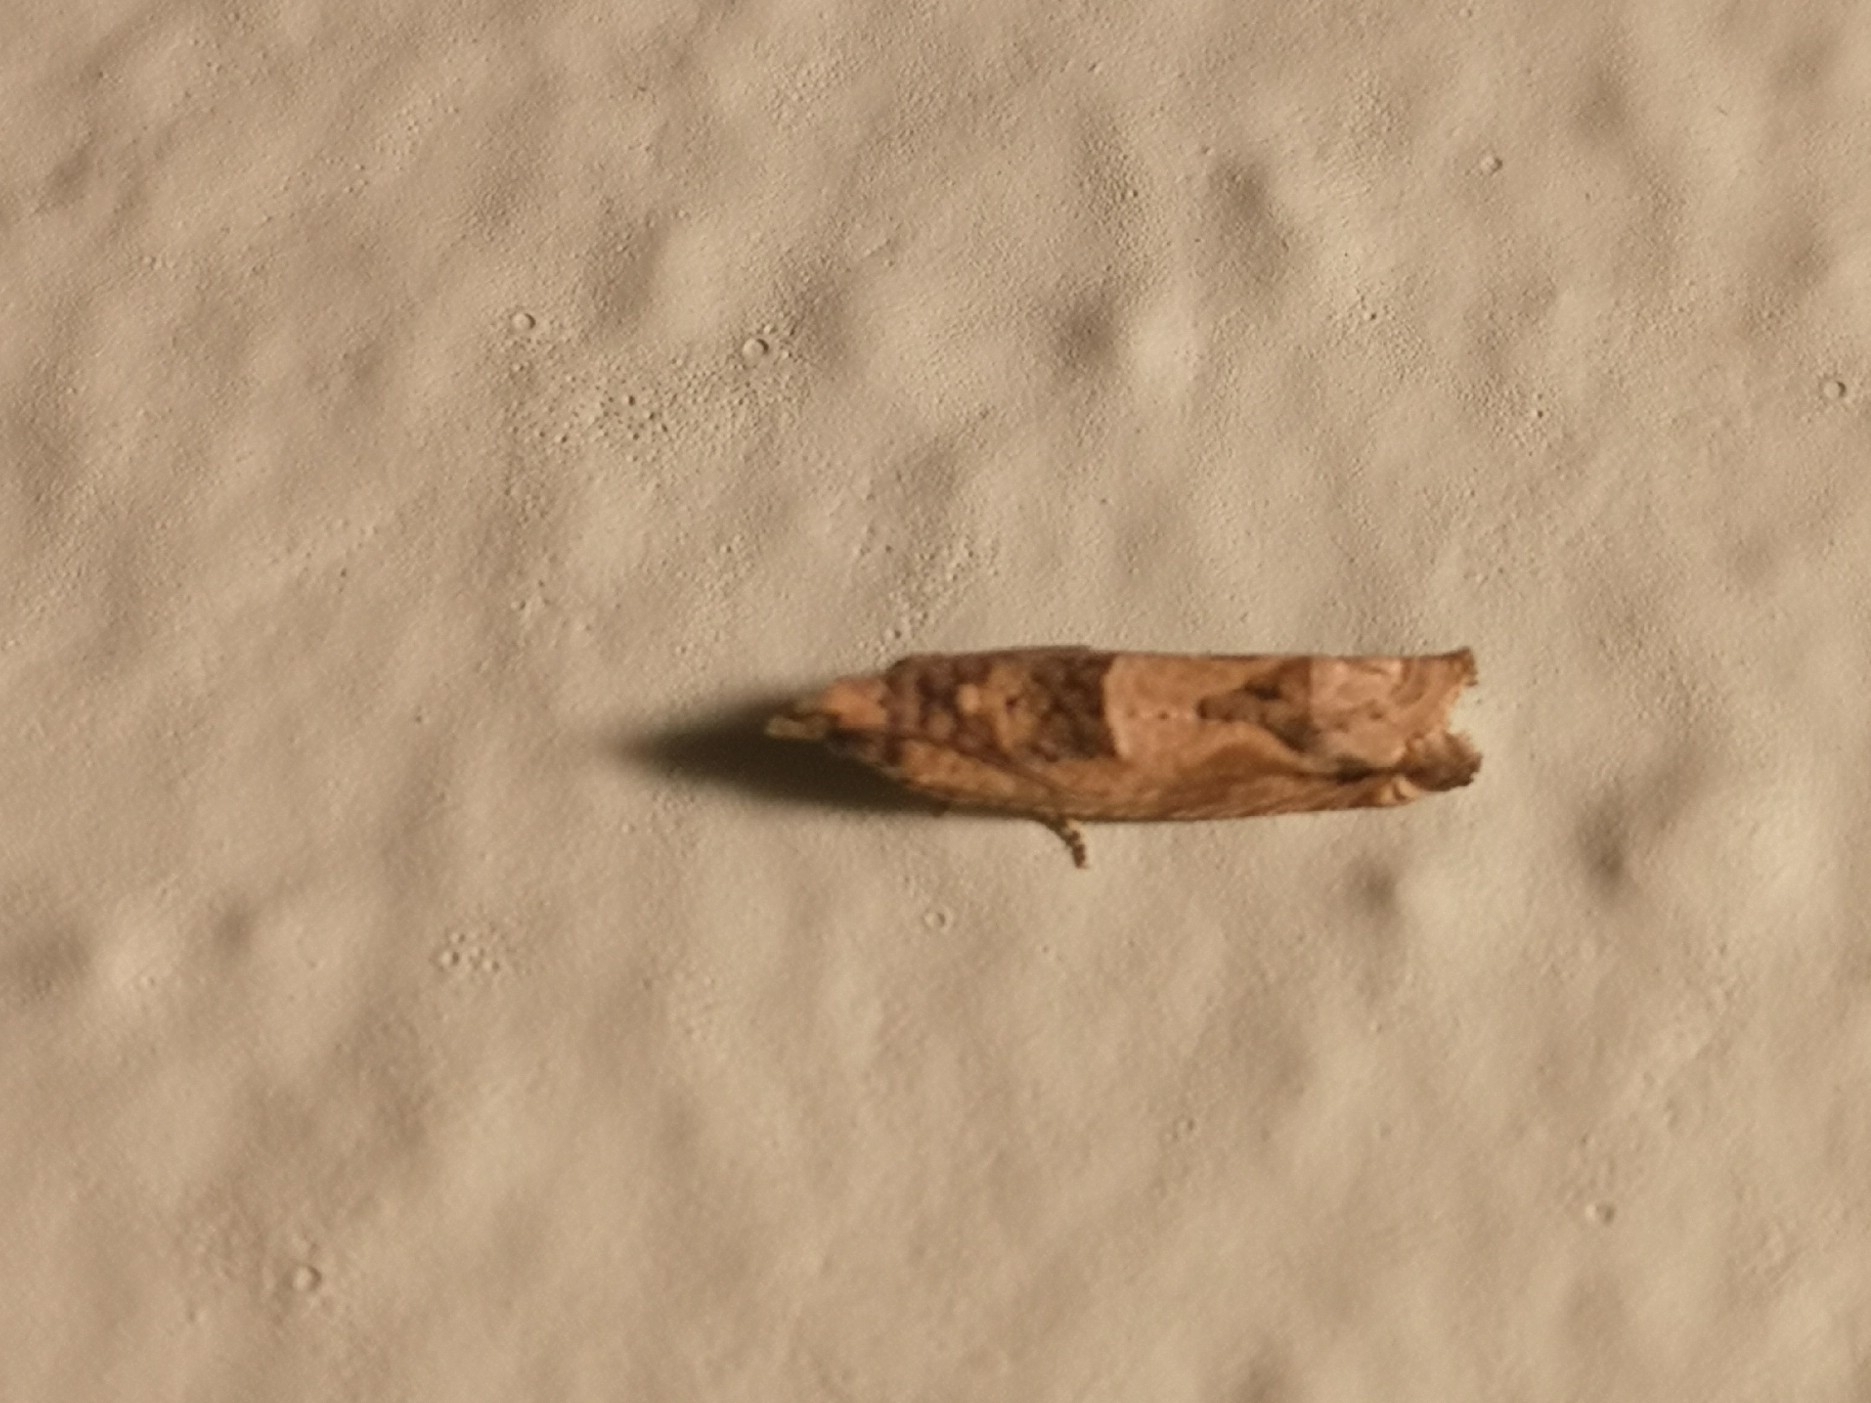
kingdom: Animalia
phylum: Arthropoda
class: Insecta
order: Lepidoptera
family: Tortricidae
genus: Crocidosema
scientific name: Crocidosema plebejana
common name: Southern bell
